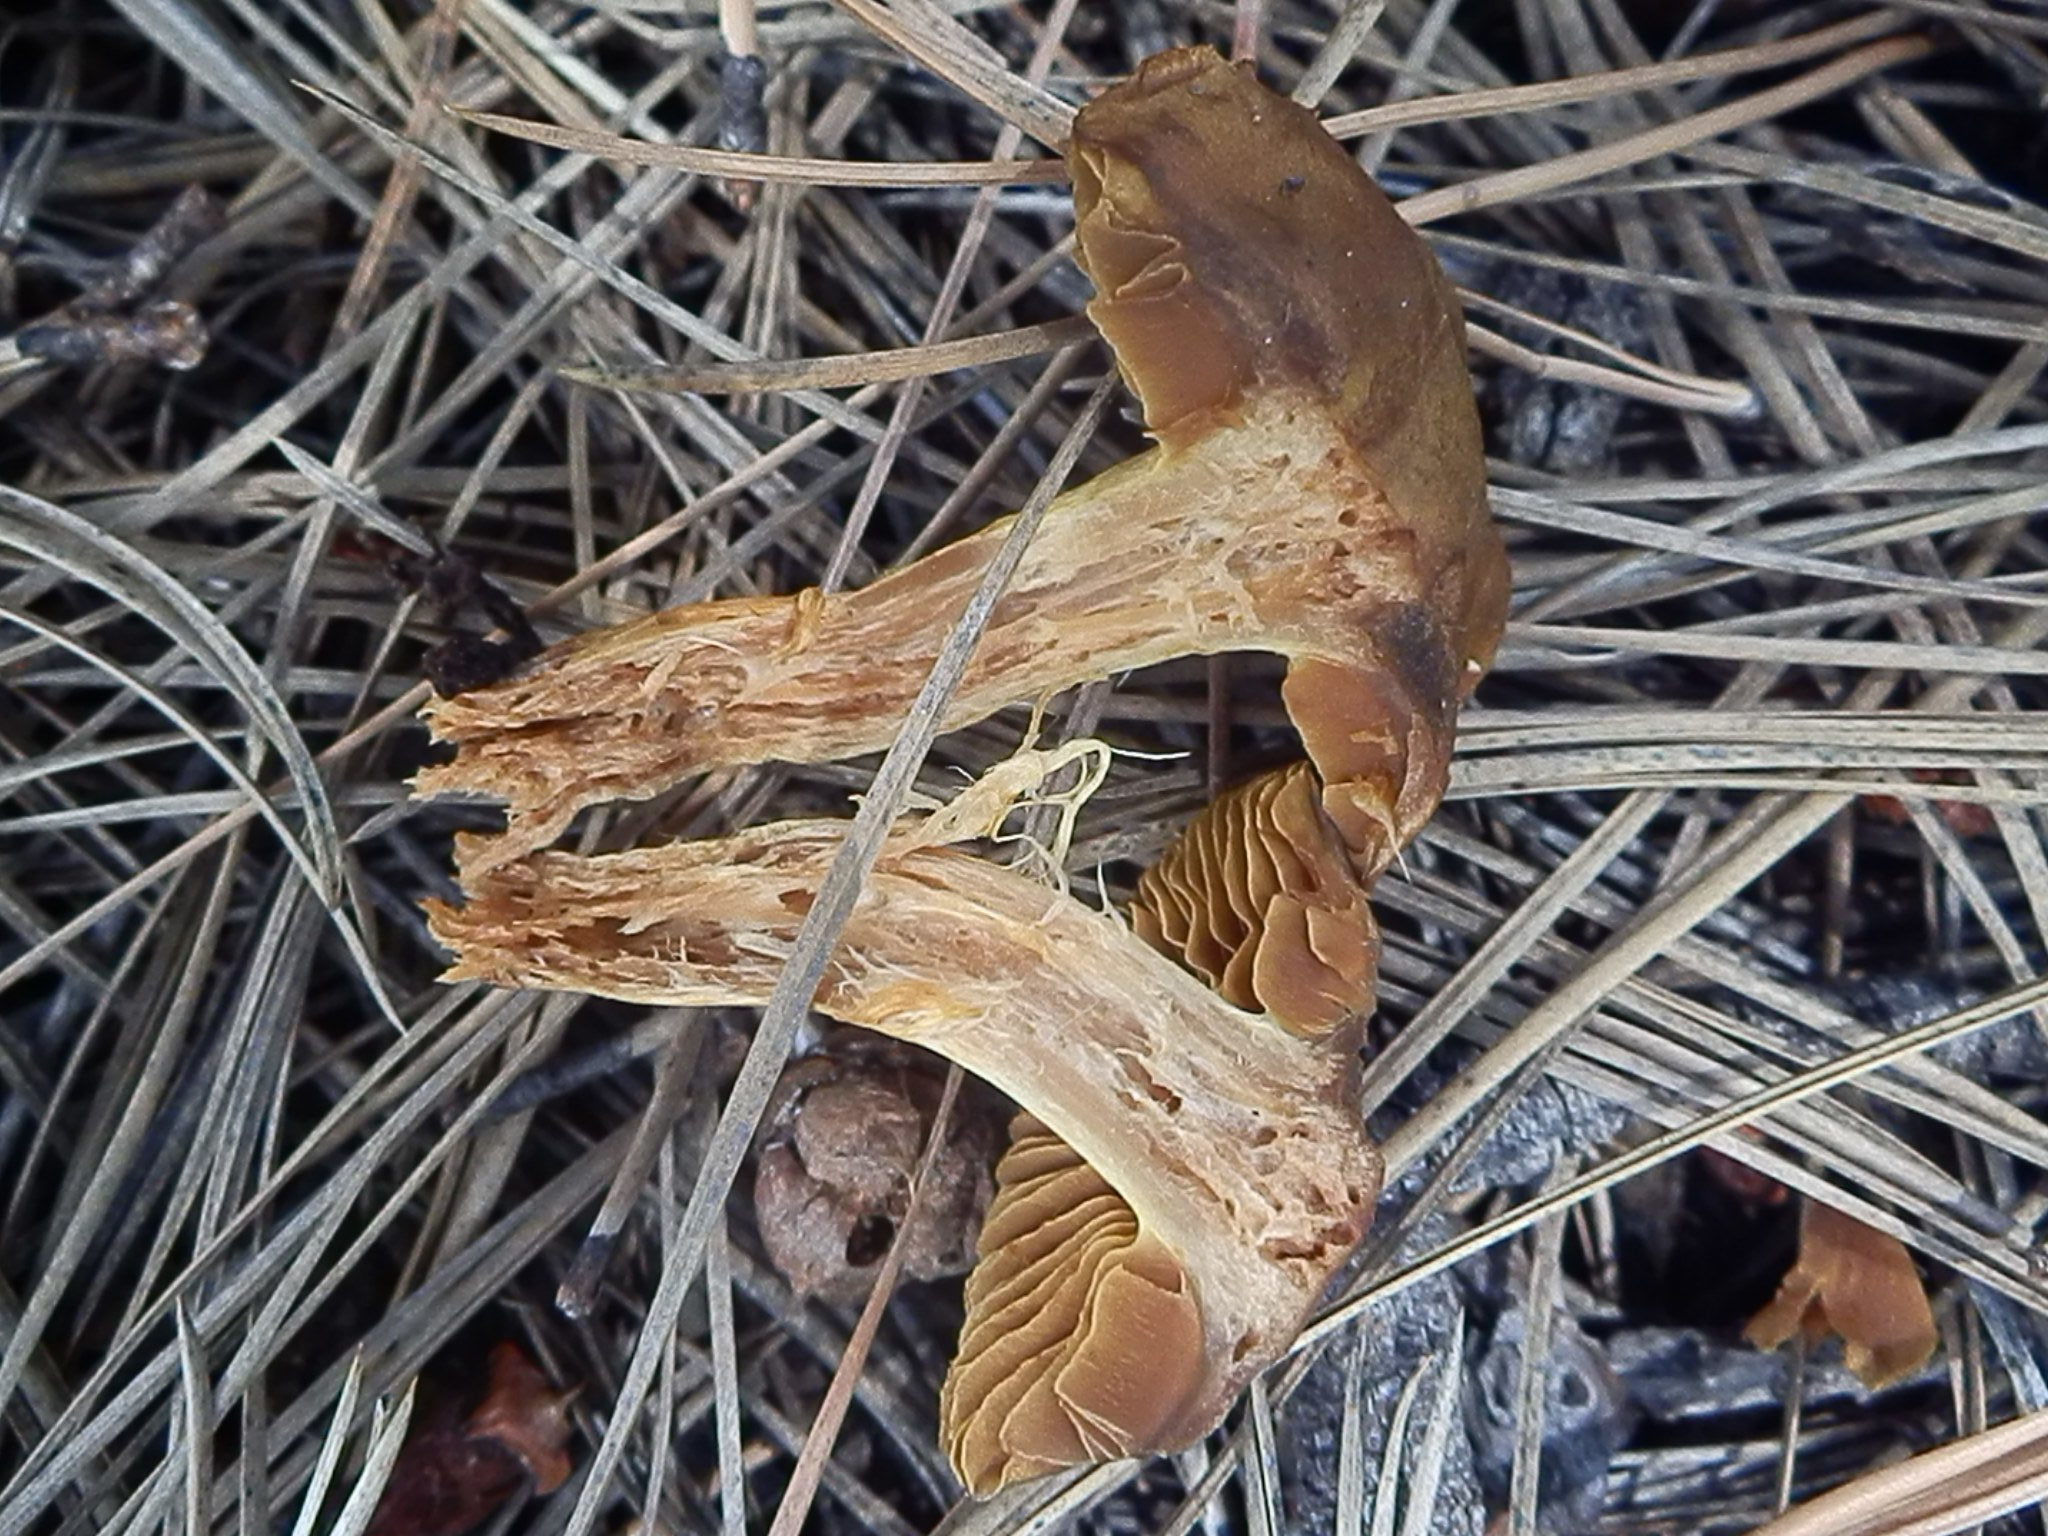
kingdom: Fungi
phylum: Basidiomycota
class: Agaricomycetes
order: Agaricales
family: Cortinariaceae
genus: Cortinarius
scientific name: Cortinarius semisanguineus
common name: Surprise webcap
